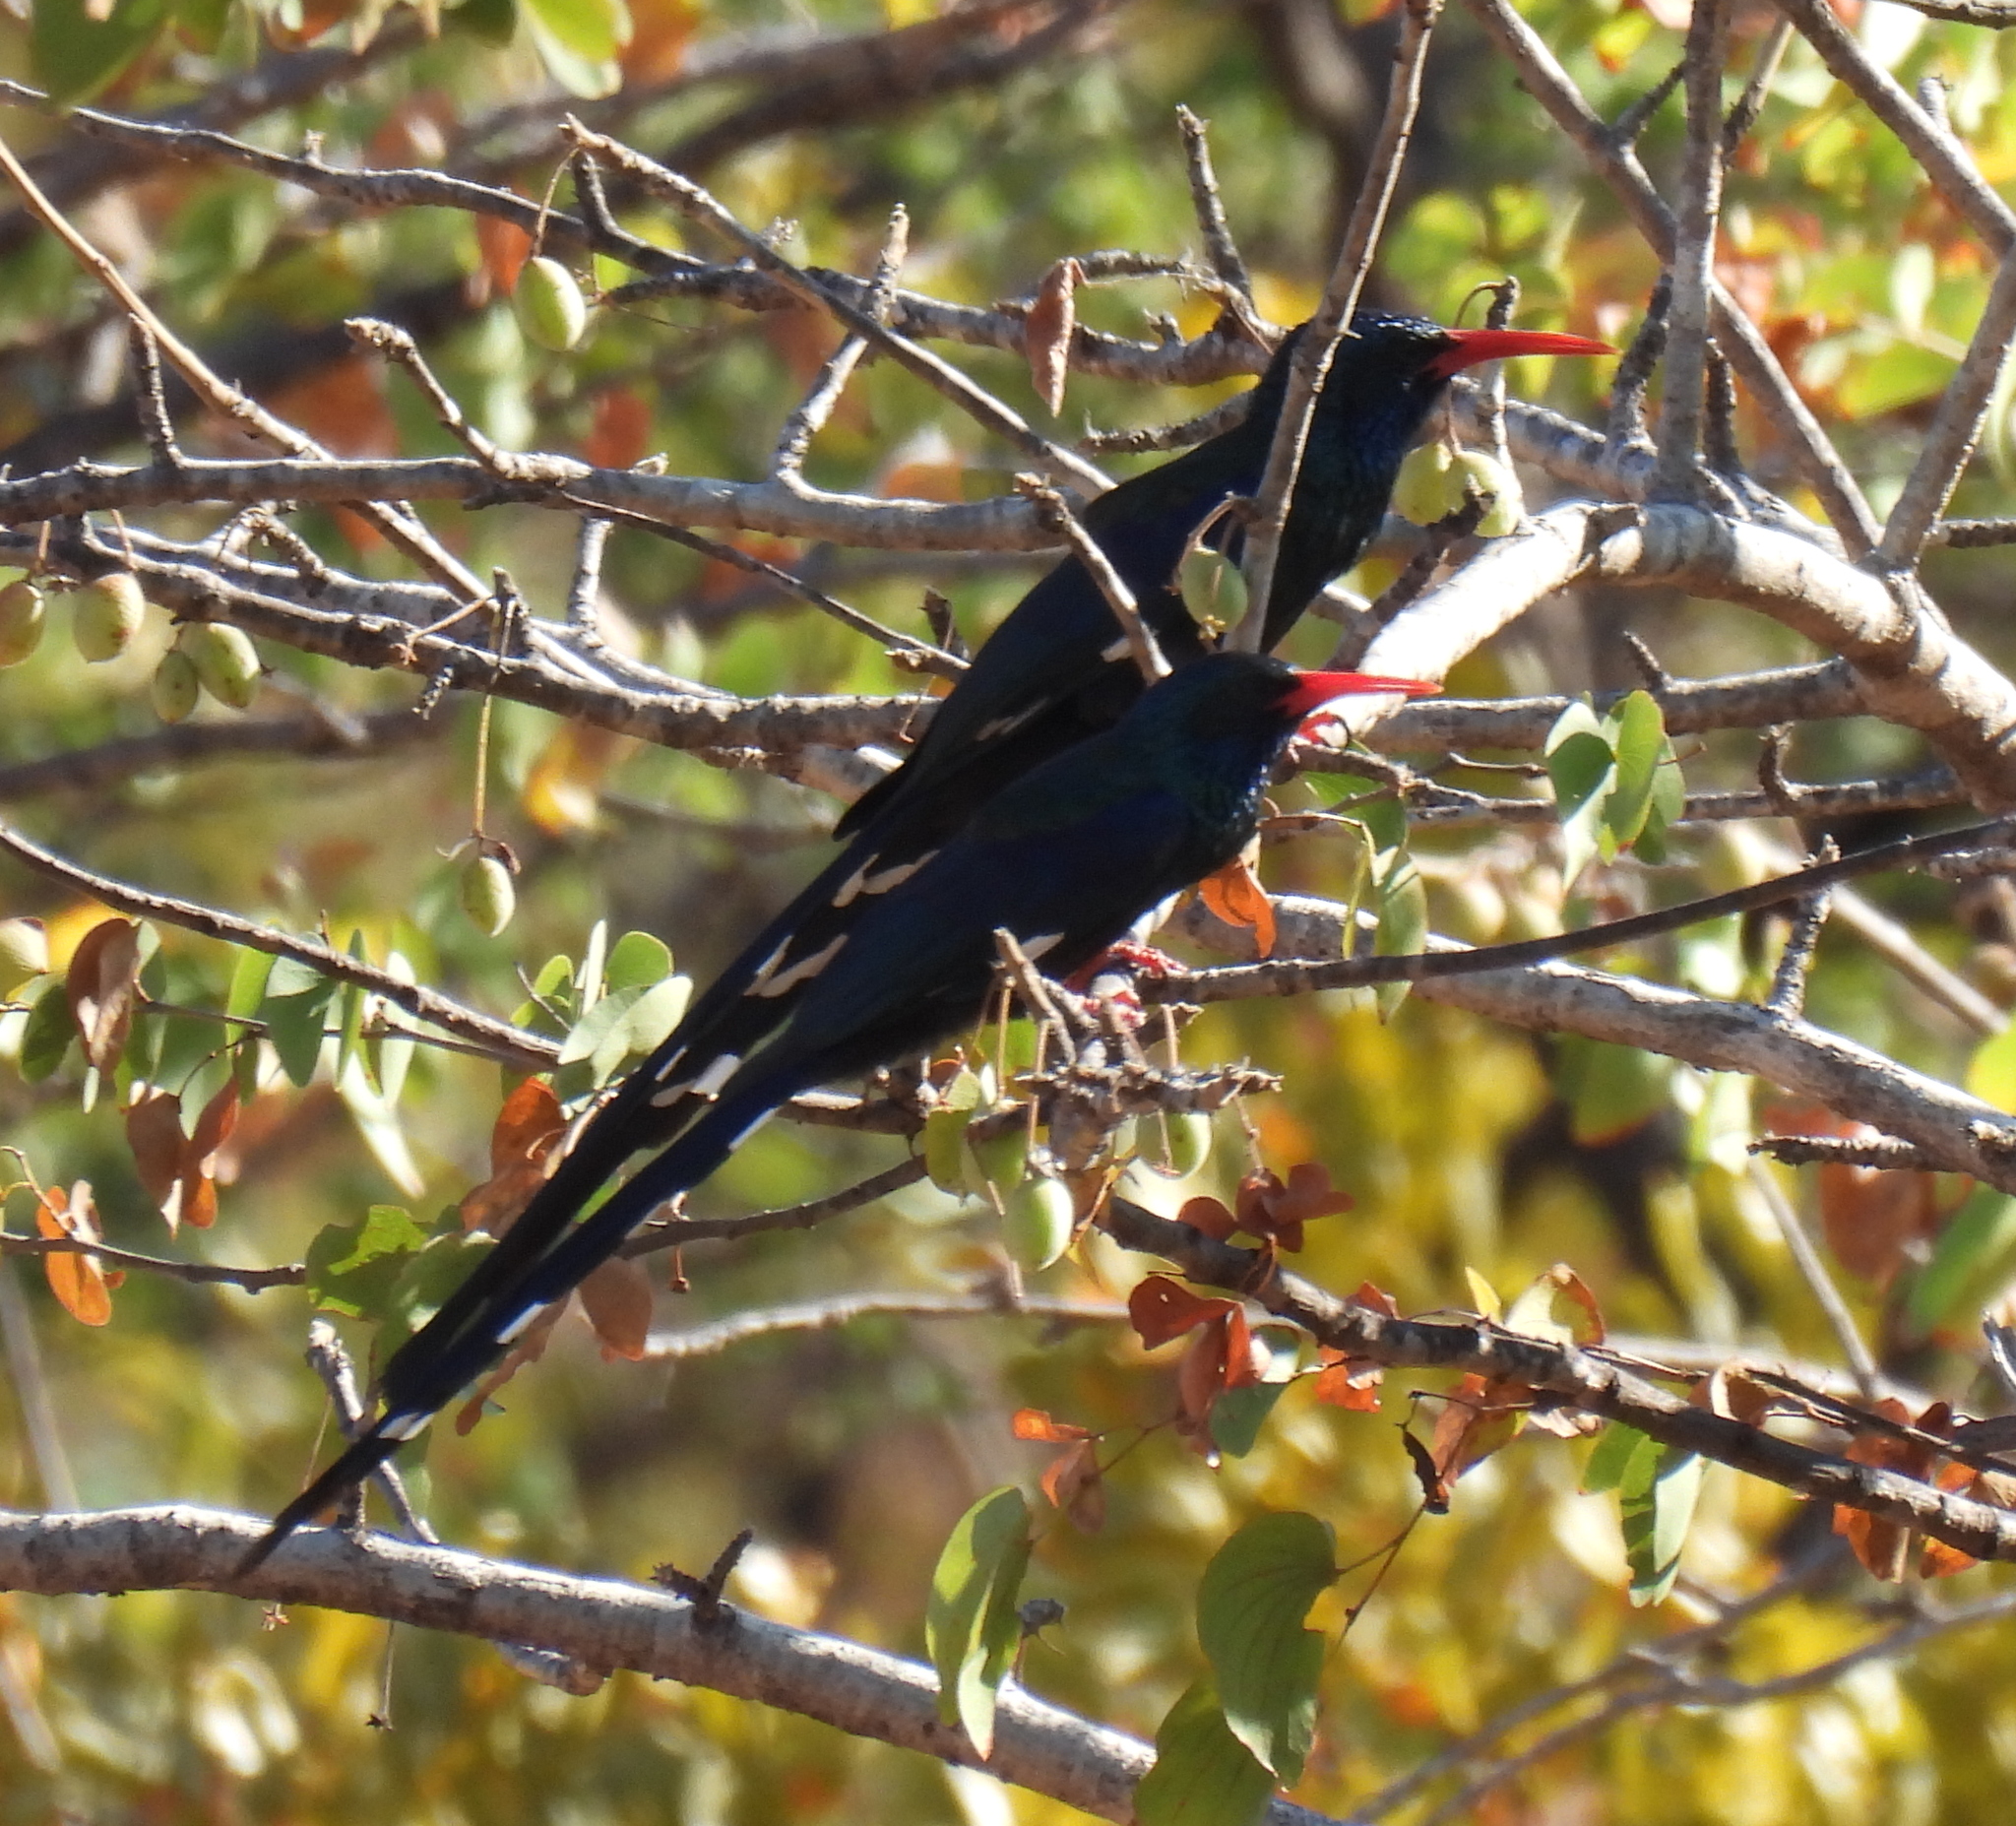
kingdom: Animalia
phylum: Chordata
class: Aves
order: Bucerotiformes
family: Phoeniculidae
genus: Phoeniculus
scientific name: Phoeniculus purpureus
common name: Green woodhoopoe
